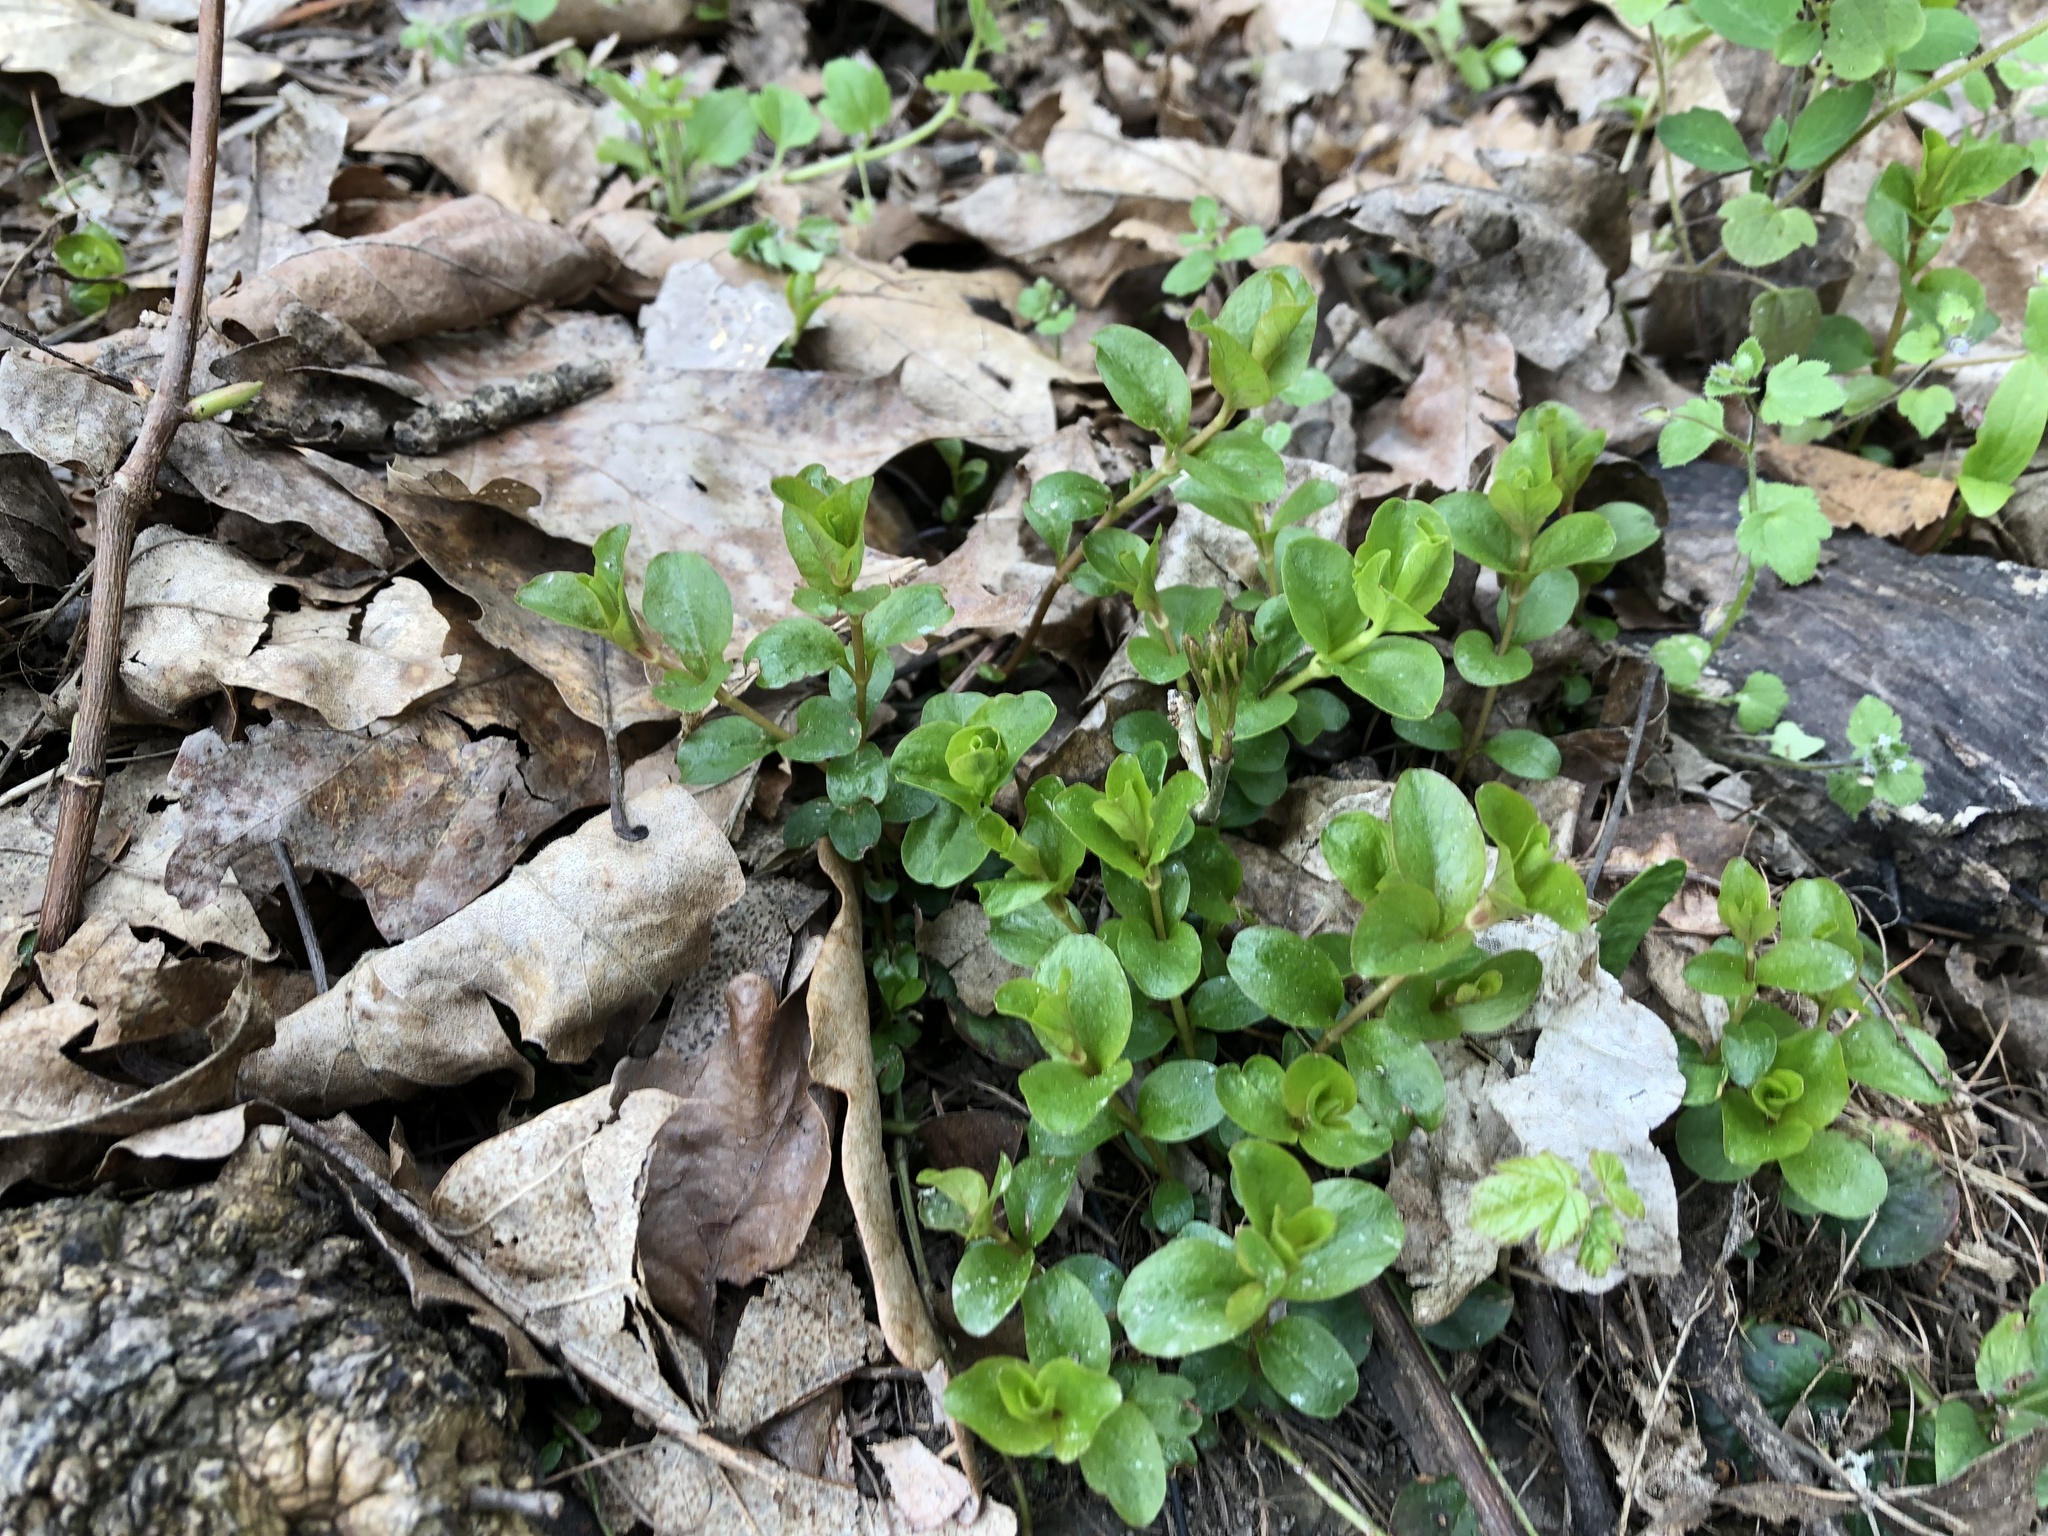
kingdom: Plantae
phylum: Tracheophyta
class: Magnoliopsida
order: Ericales
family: Primulaceae
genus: Lysimachia
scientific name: Lysimachia nummularia
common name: Moneywort
